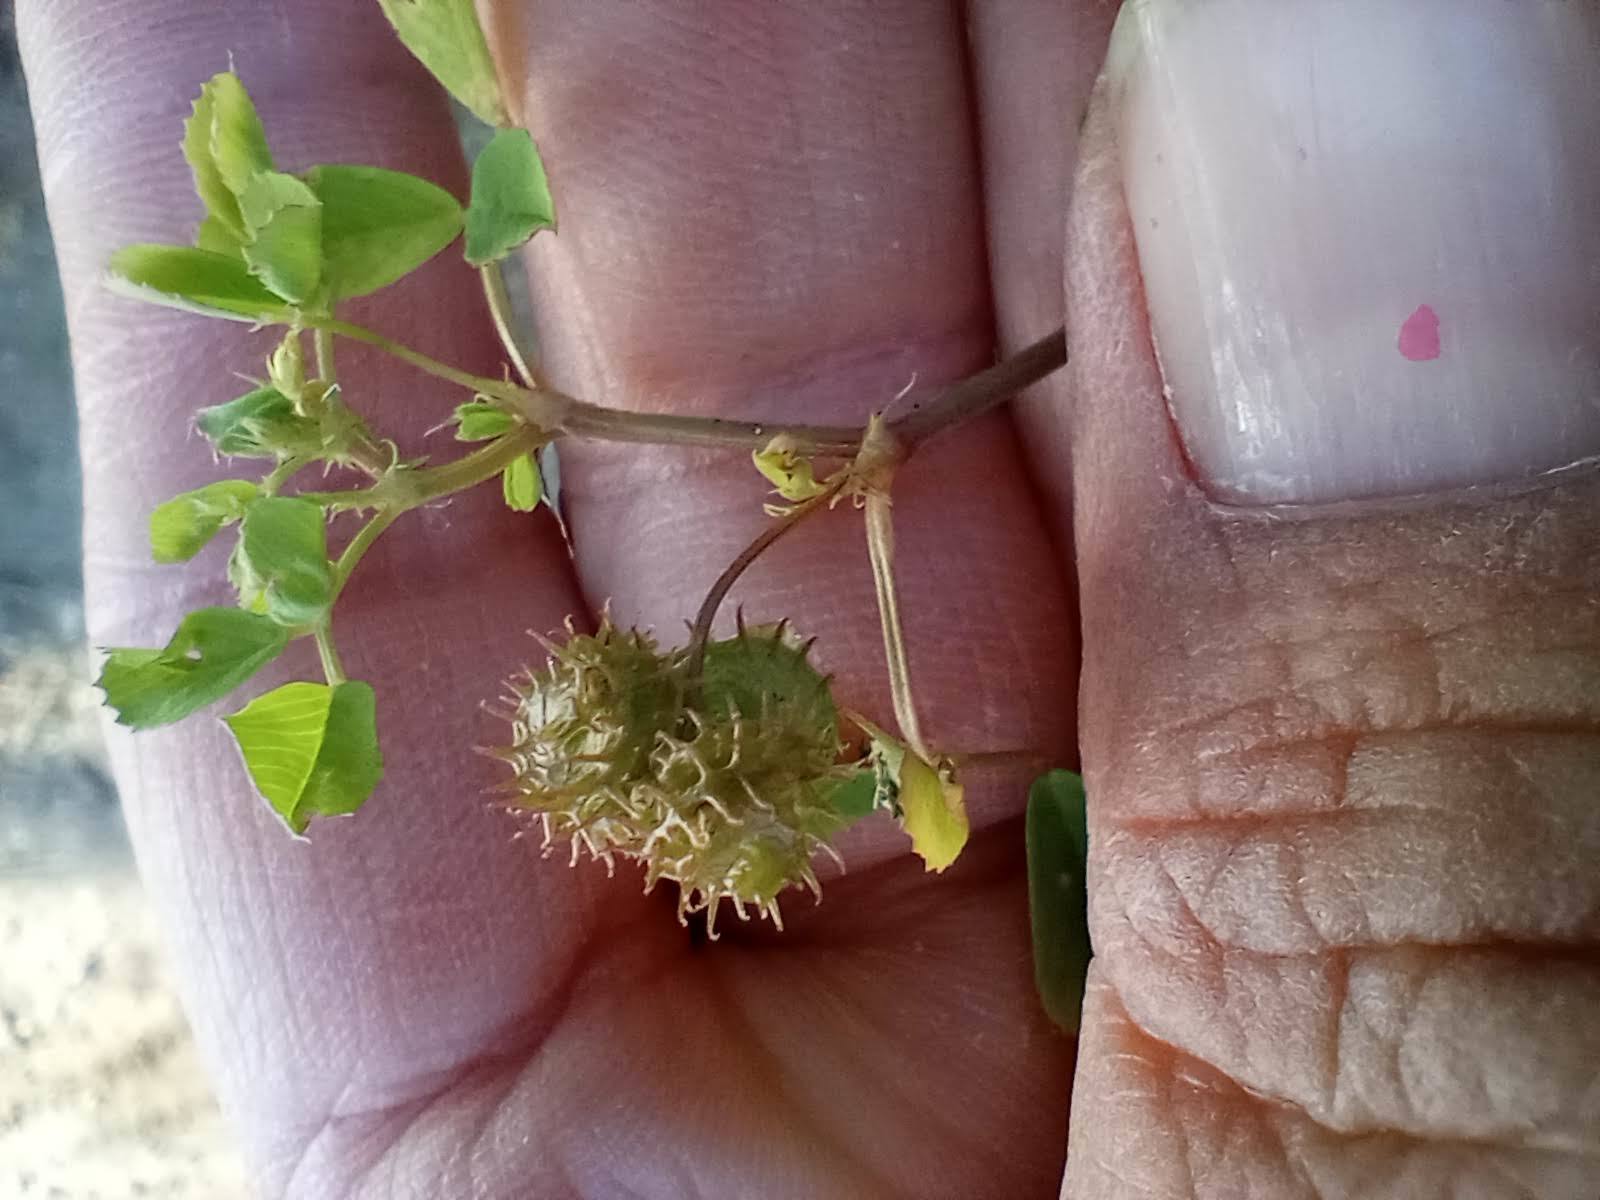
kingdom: Plantae
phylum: Tracheophyta
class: Magnoliopsida
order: Fabales
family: Fabaceae
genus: Medicago
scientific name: Medicago polymorpha
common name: Burclover
